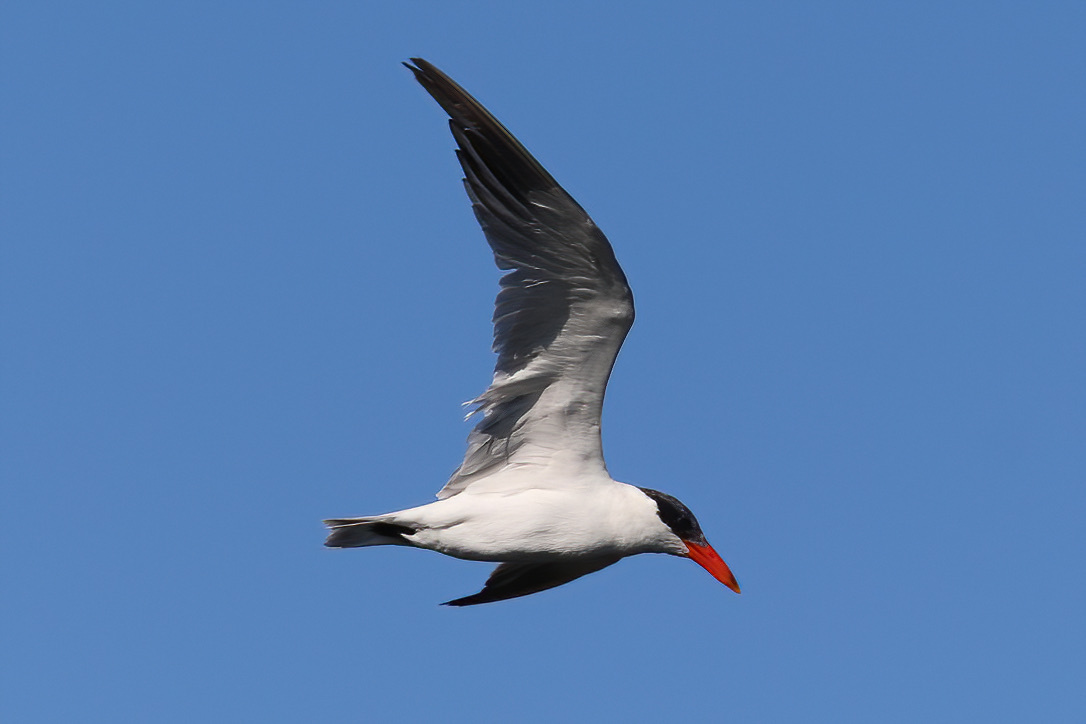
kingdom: Animalia
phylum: Chordata
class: Aves
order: Charadriiformes
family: Laridae
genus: Hydroprogne
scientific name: Hydroprogne caspia
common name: Caspian tern
